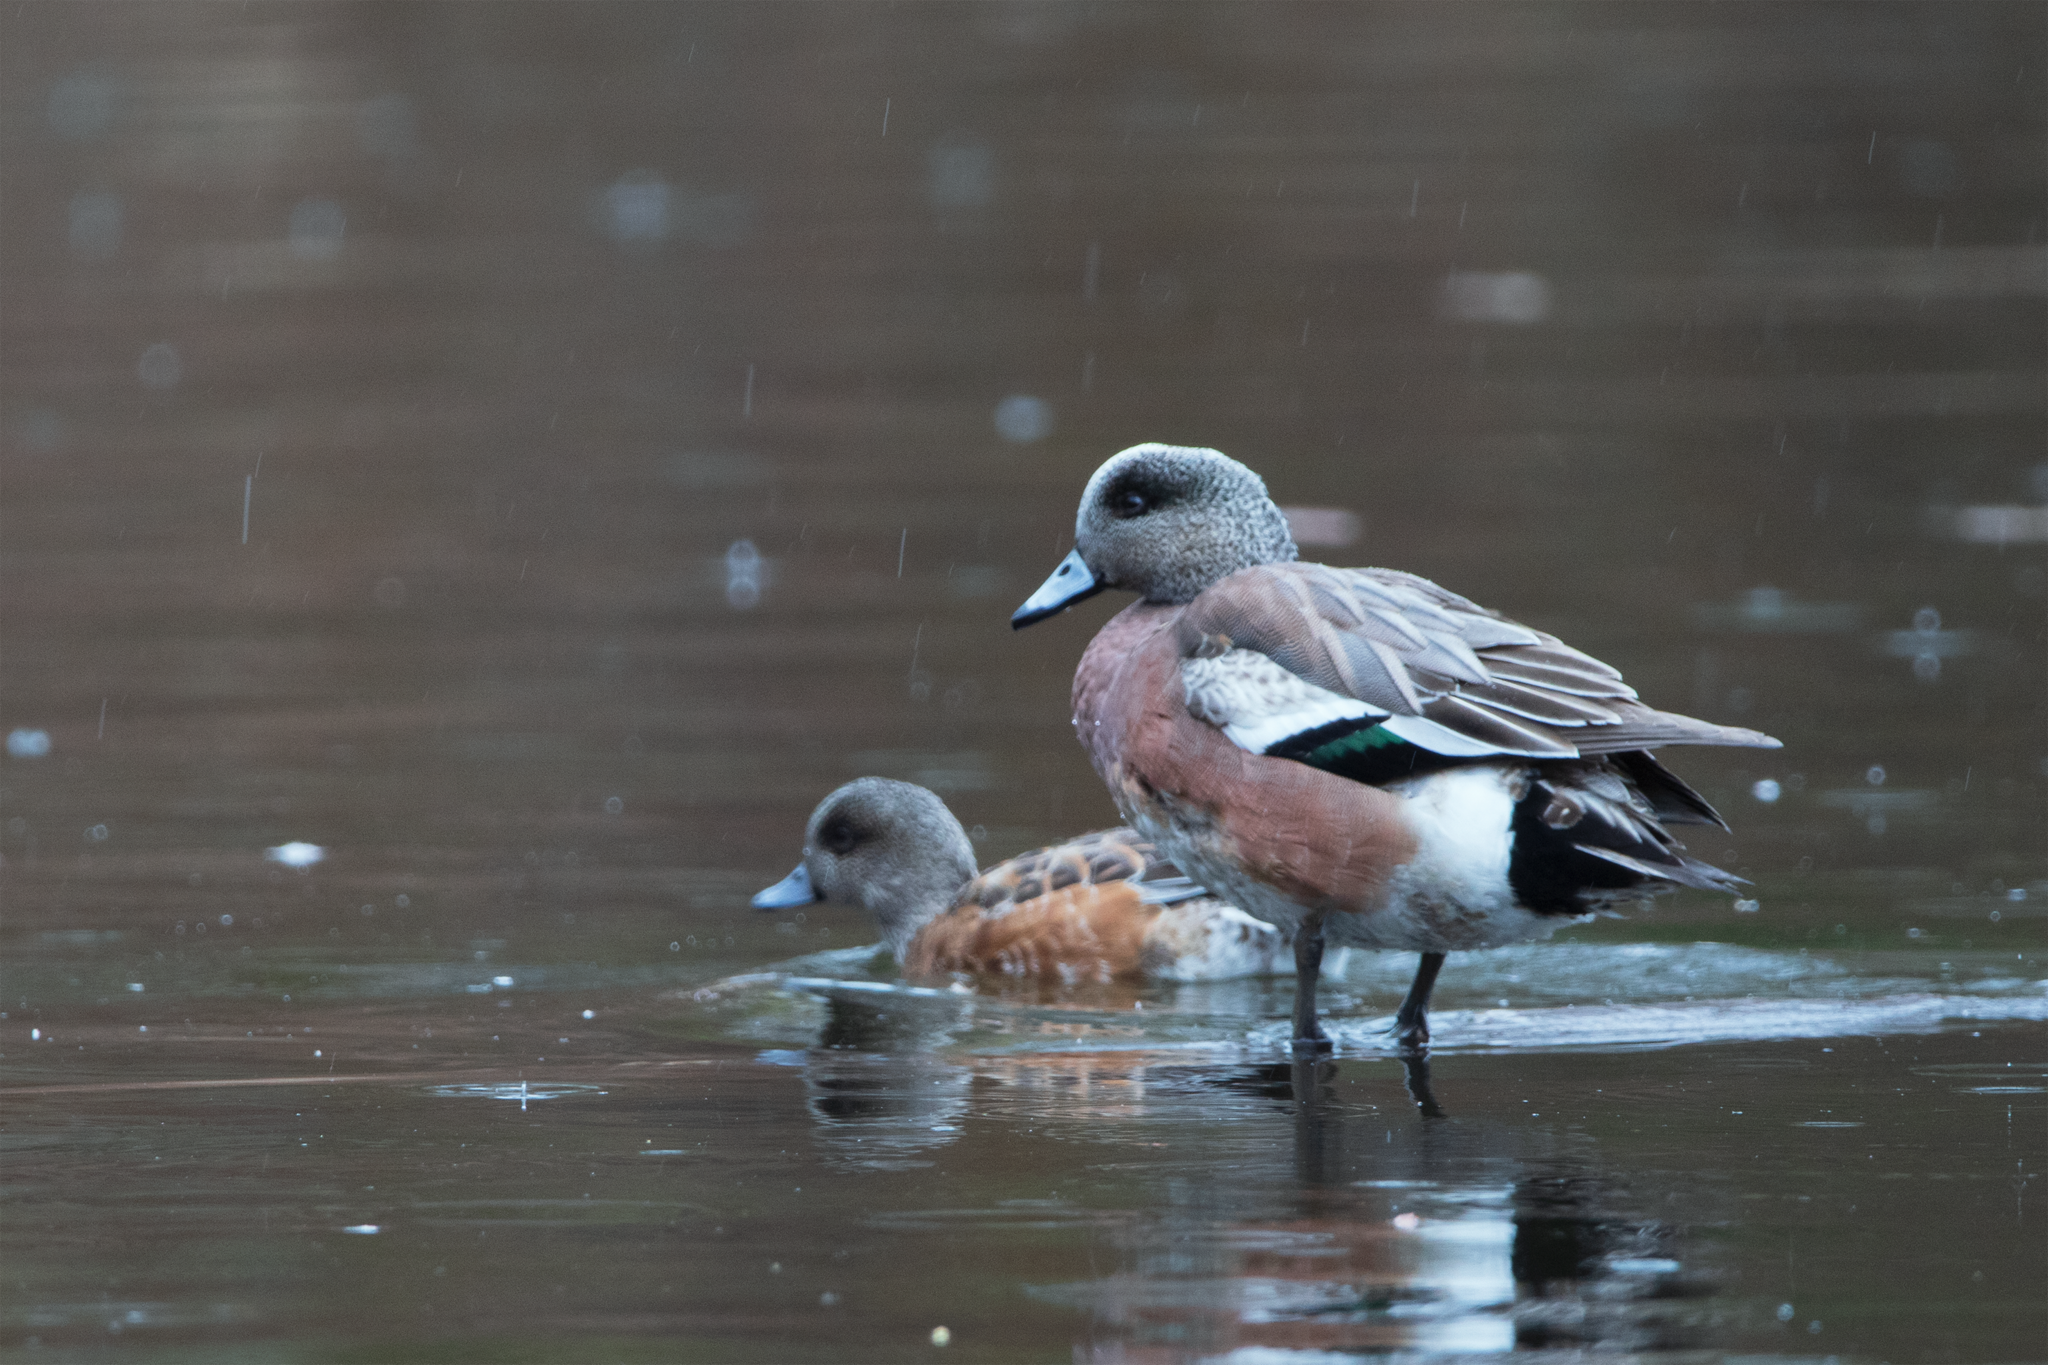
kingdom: Animalia
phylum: Chordata
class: Aves
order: Anseriformes
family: Anatidae
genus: Mareca
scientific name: Mareca americana
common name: American wigeon
